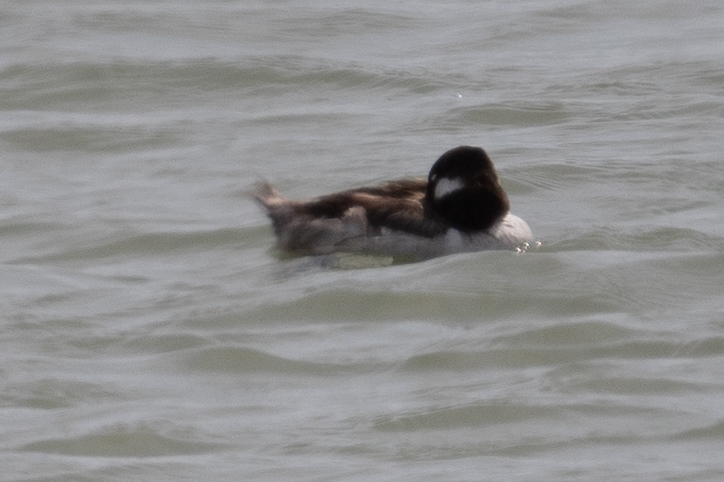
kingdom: Animalia
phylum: Chordata
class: Aves
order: Anseriformes
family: Anatidae
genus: Bucephala
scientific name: Bucephala albeola
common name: Bufflehead
